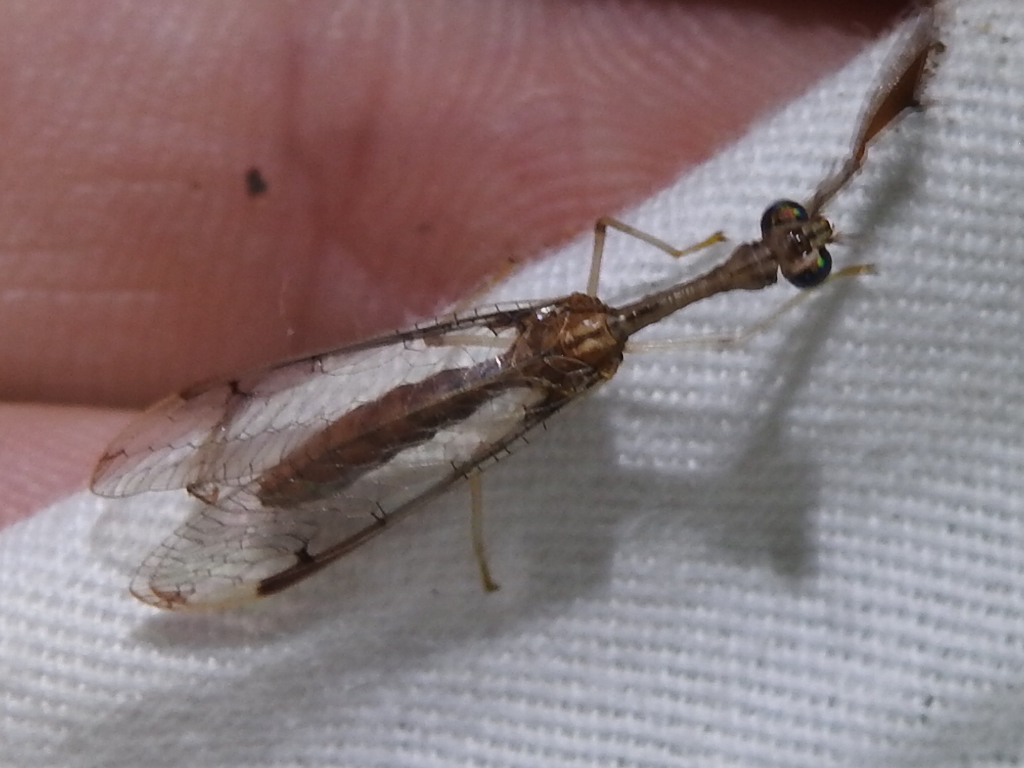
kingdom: Animalia
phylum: Arthropoda
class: Insecta
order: Neuroptera
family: Mantispidae
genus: Dicromantispa
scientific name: Dicromantispa interrupta
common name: Four-spotted mantidfly
